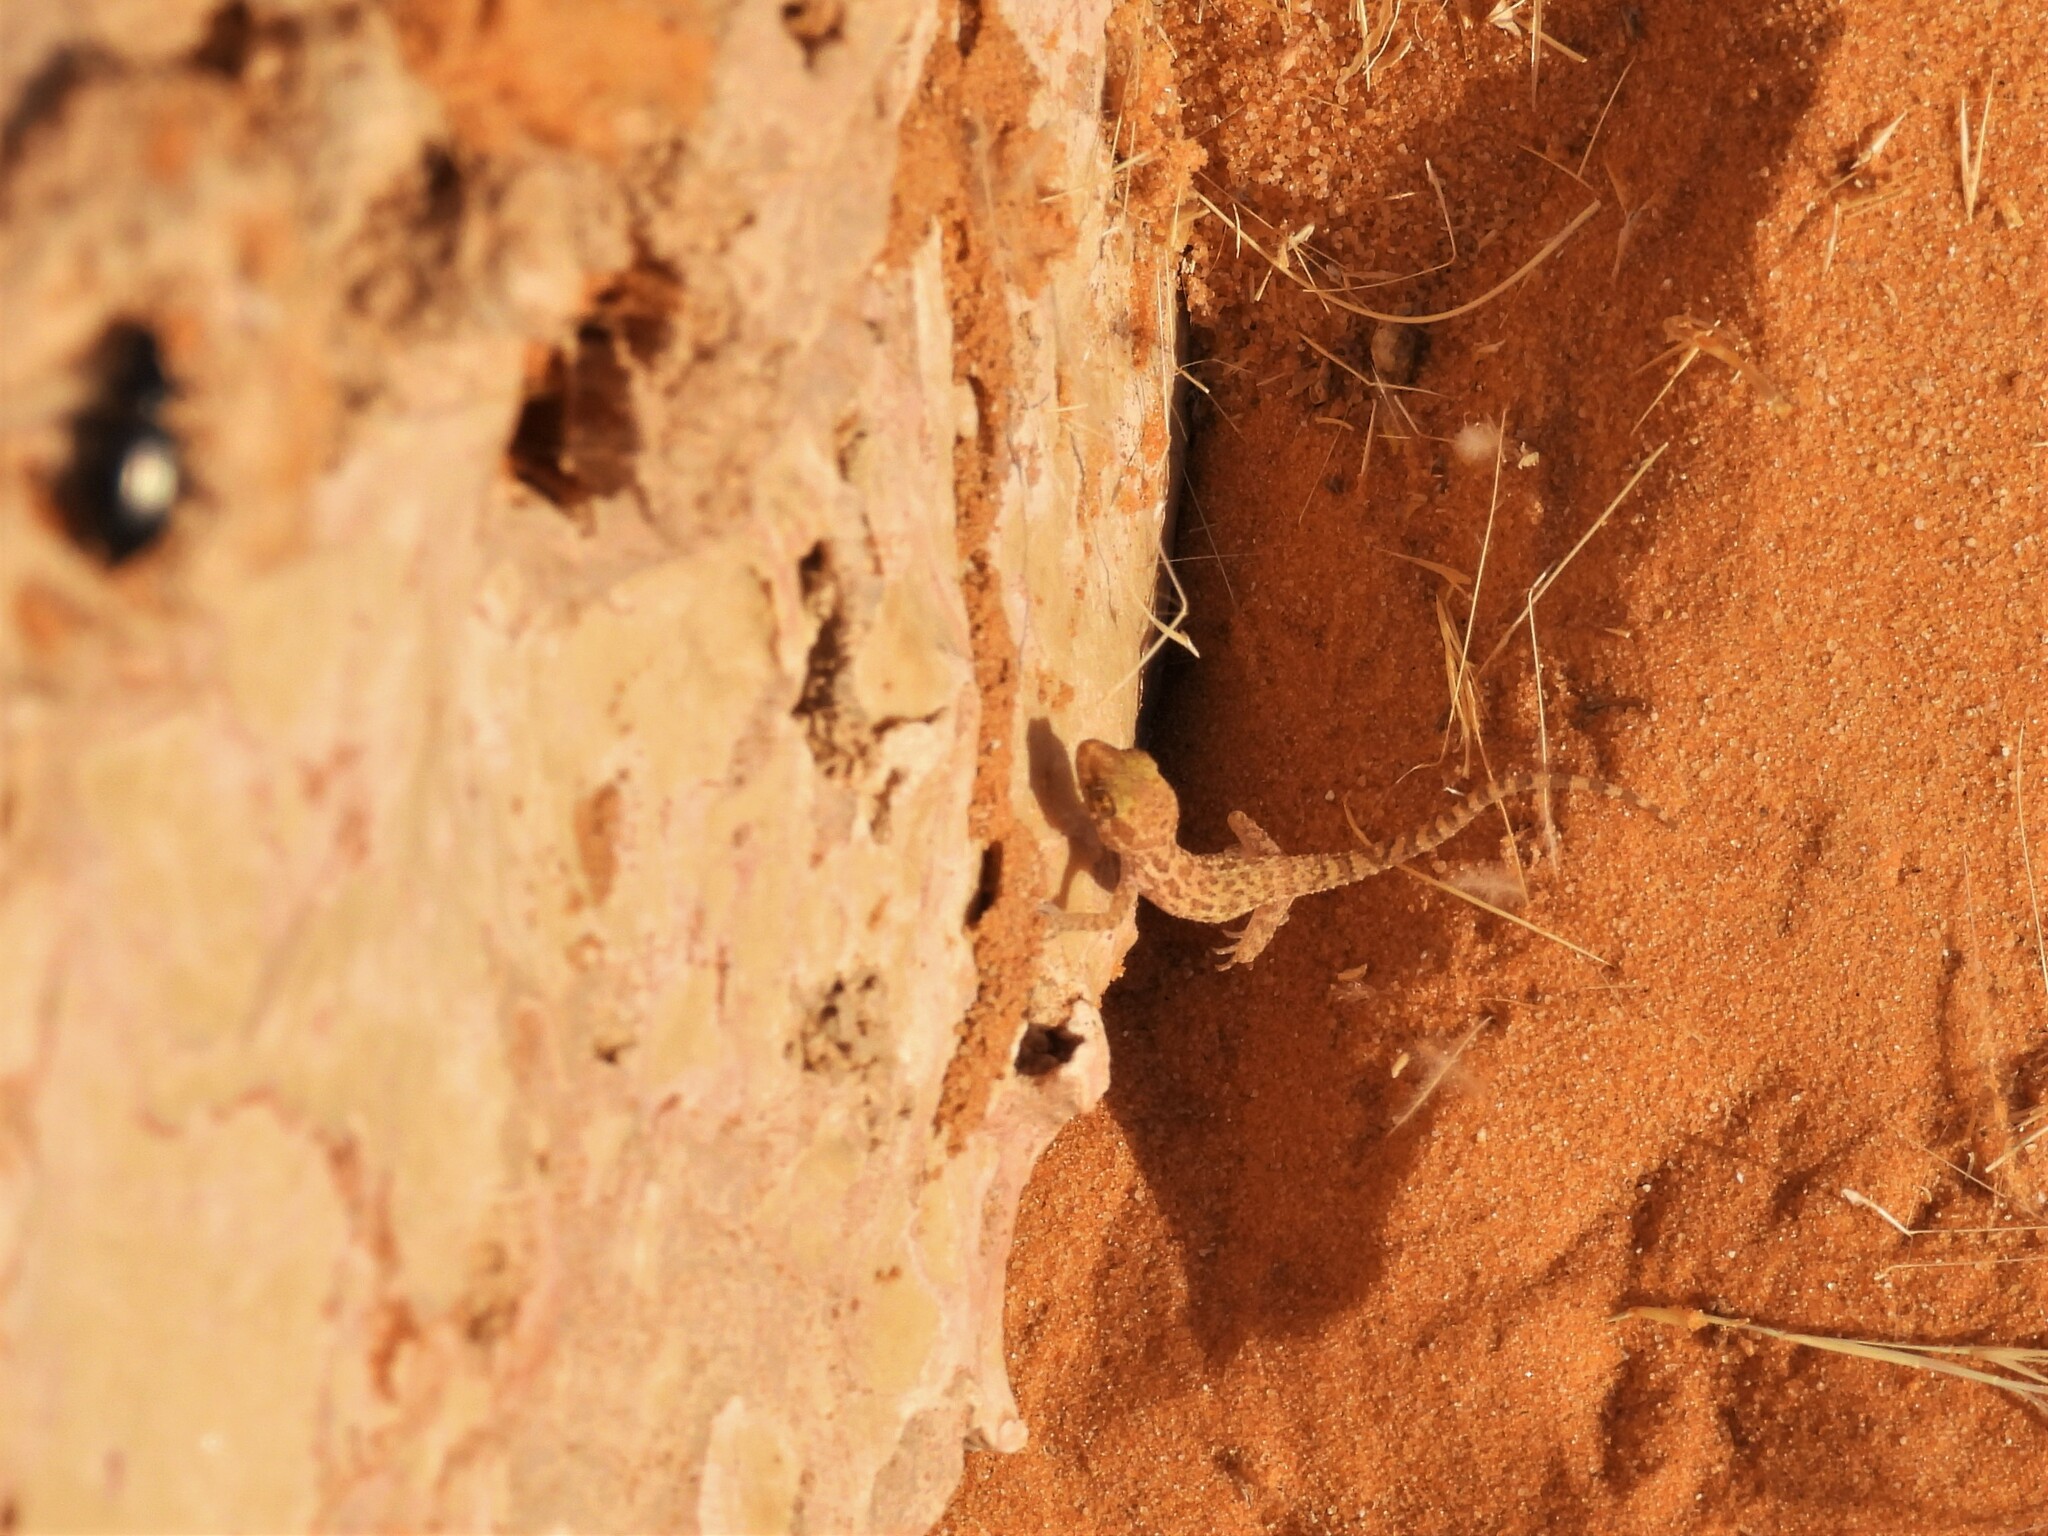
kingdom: Animalia
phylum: Chordata
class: Squamata
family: Gekkonidae
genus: Bunopus
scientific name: Bunopus tuberculatus
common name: Southern tuberculated gecko
